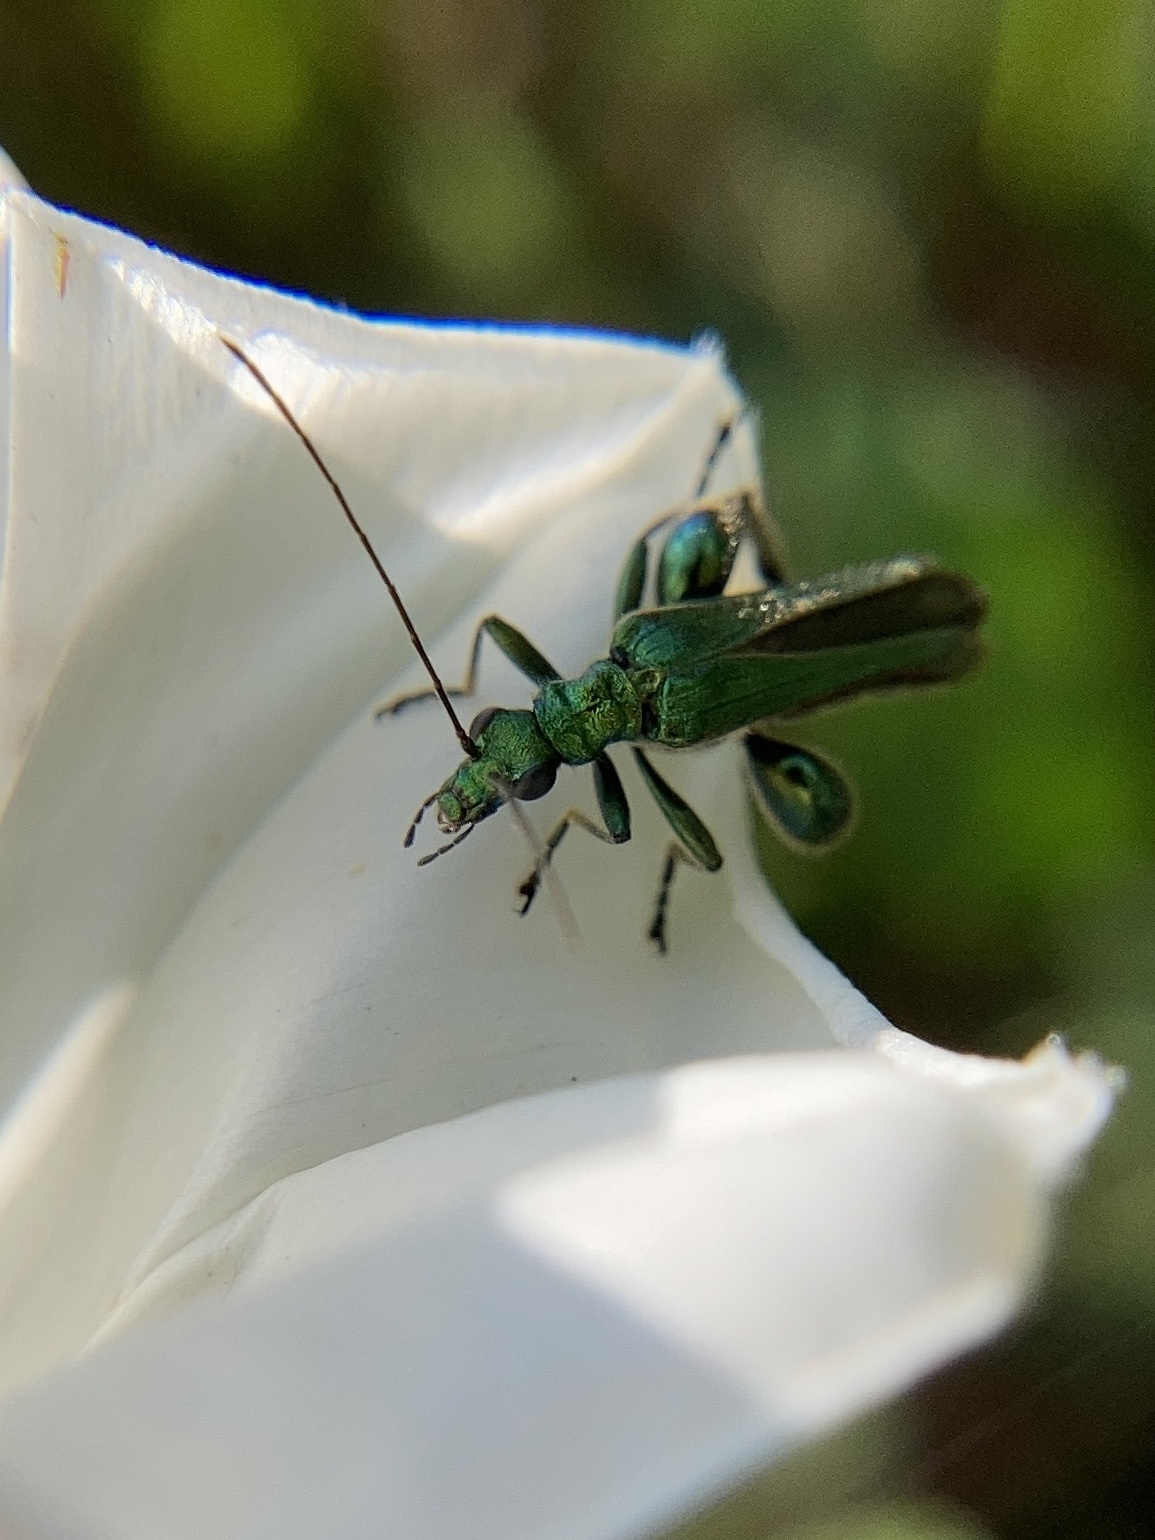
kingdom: Animalia
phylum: Arthropoda
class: Insecta
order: Coleoptera
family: Oedemeridae
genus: Oedemera
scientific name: Oedemera nobilis
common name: Swollen-thighed beetle
